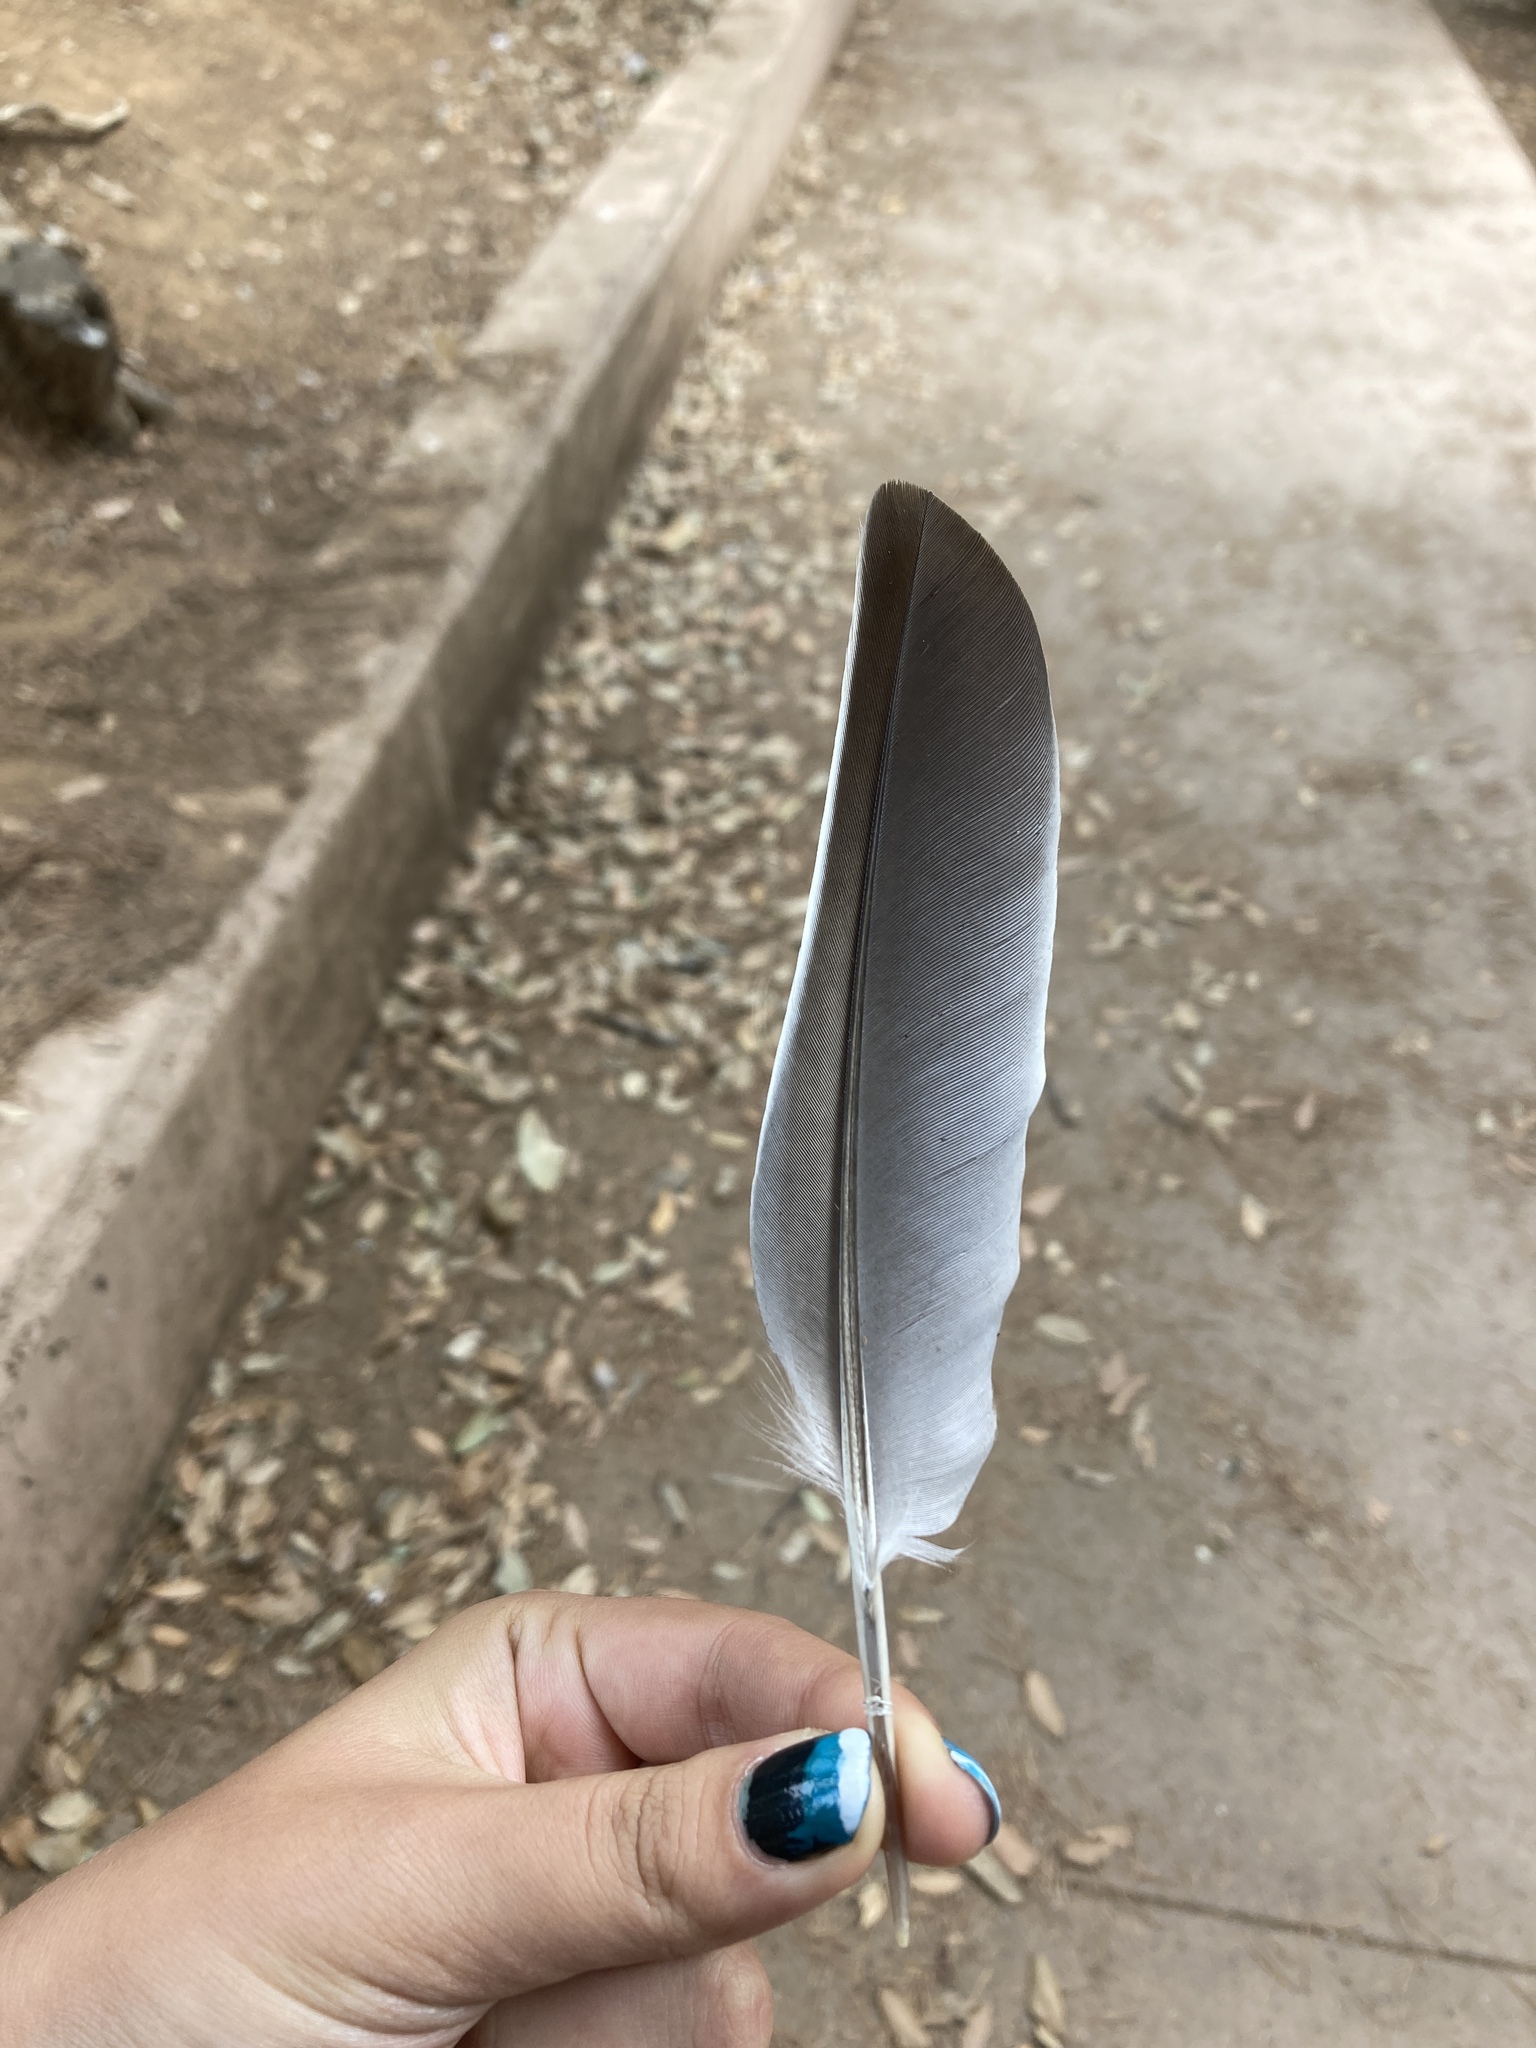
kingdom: Animalia
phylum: Chordata
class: Aves
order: Columbiformes
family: Columbidae
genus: Columba
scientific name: Columba palumbus
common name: Common wood pigeon
